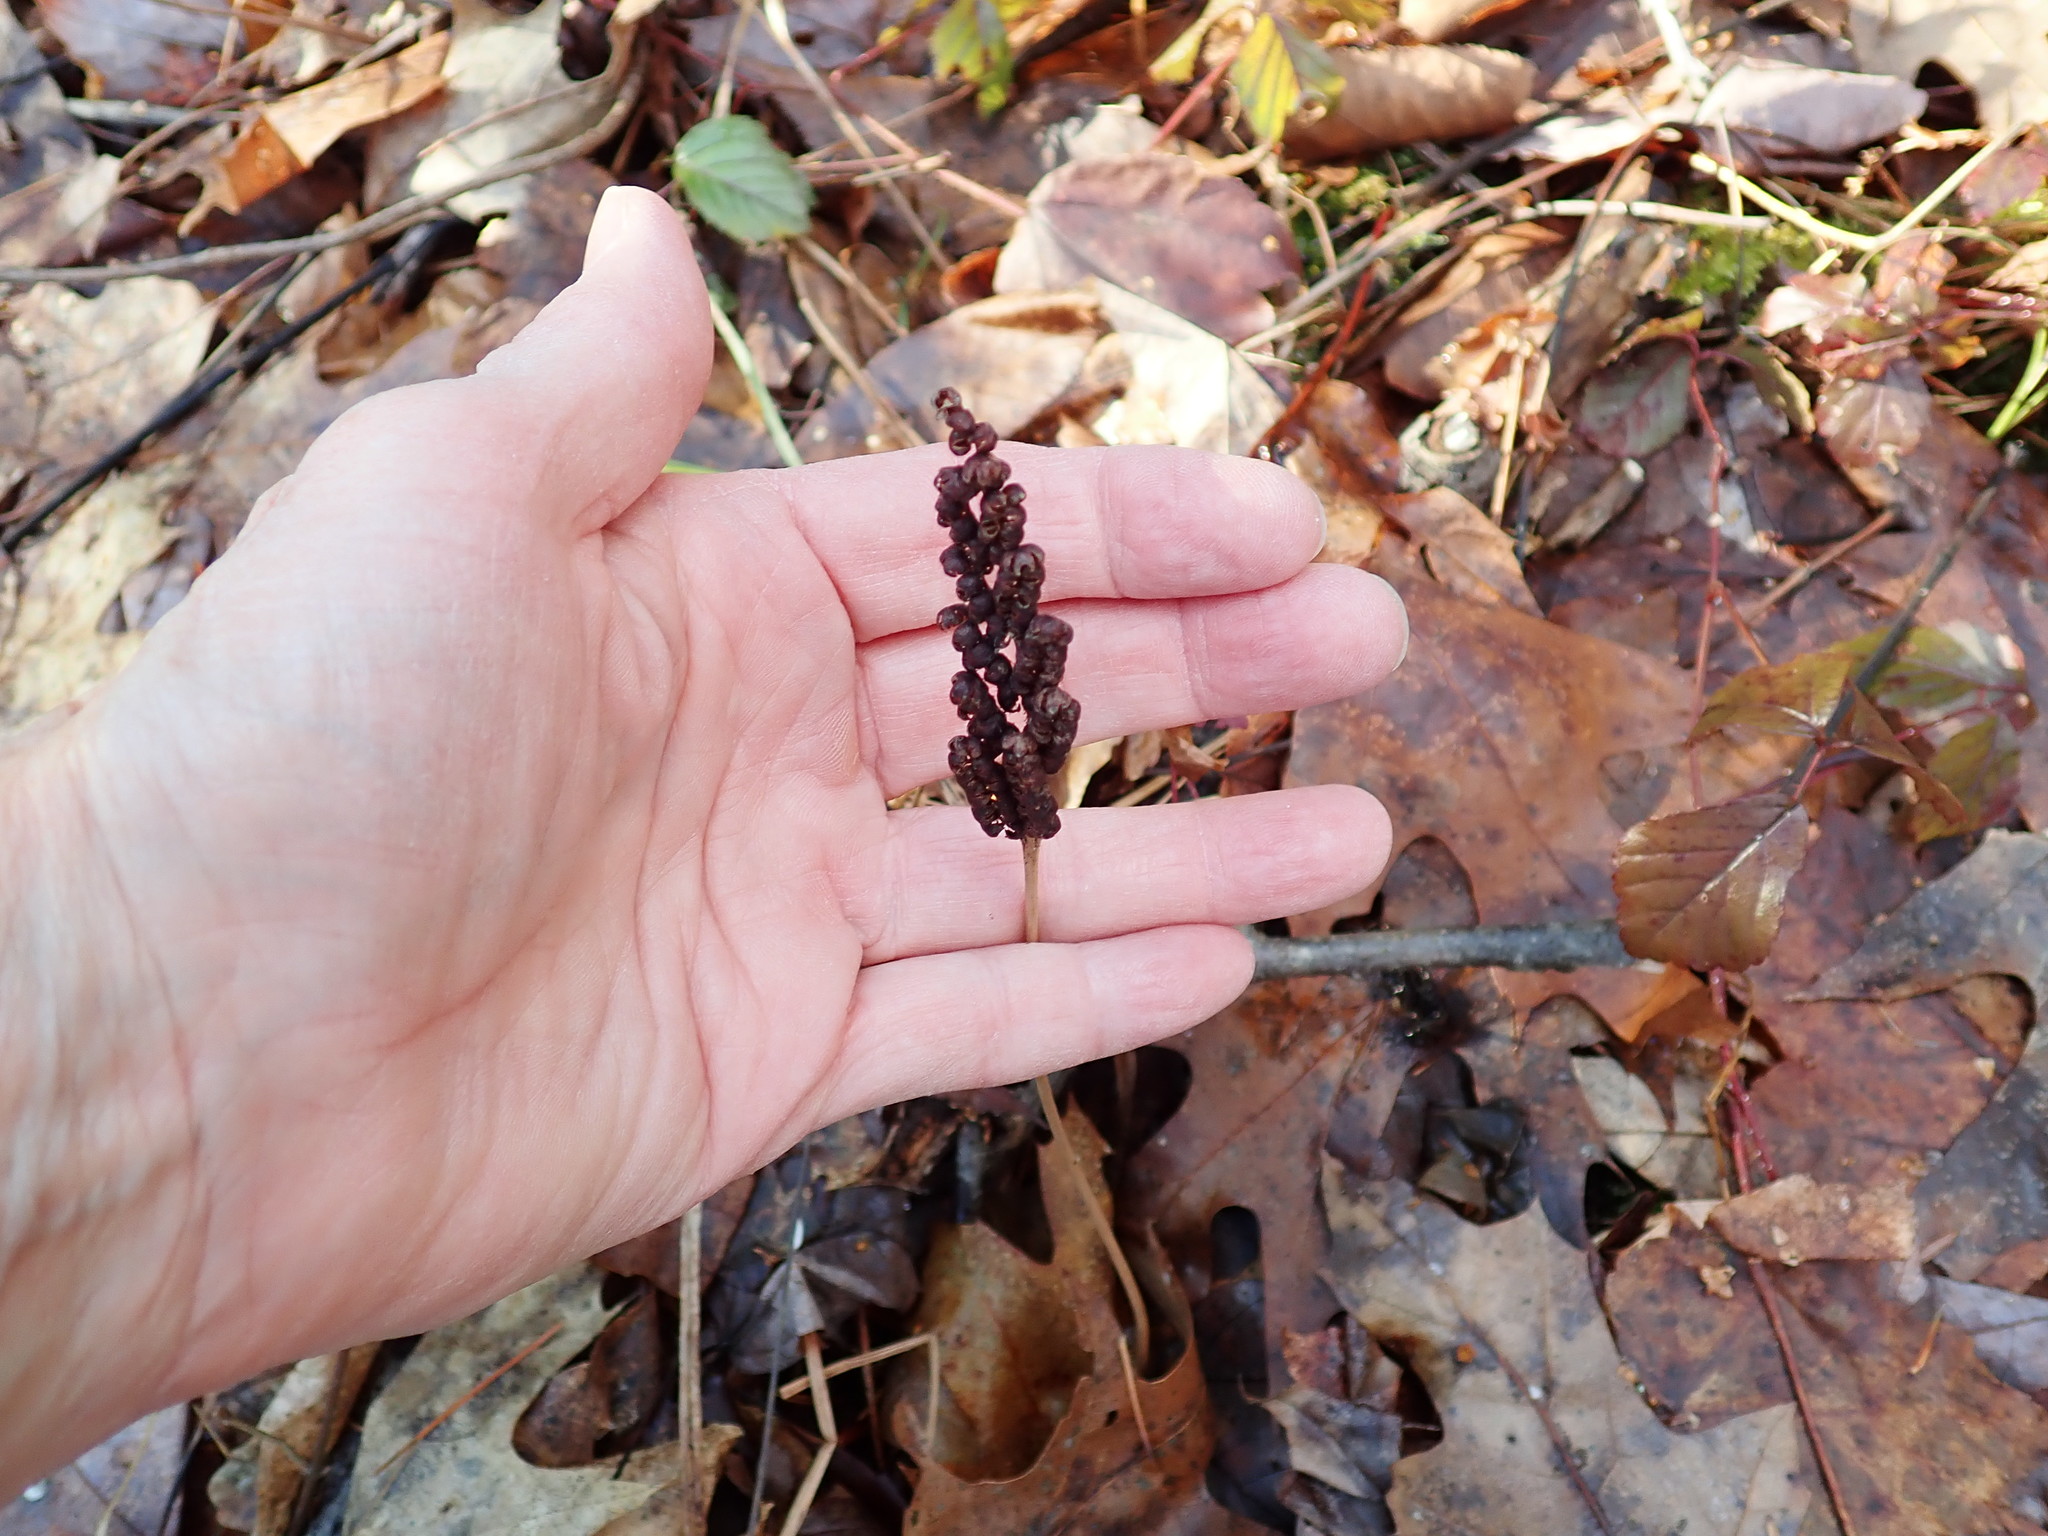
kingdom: Plantae
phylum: Tracheophyta
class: Polypodiopsida
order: Polypodiales
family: Onocleaceae
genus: Onoclea
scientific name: Onoclea sensibilis
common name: Sensitive fern
